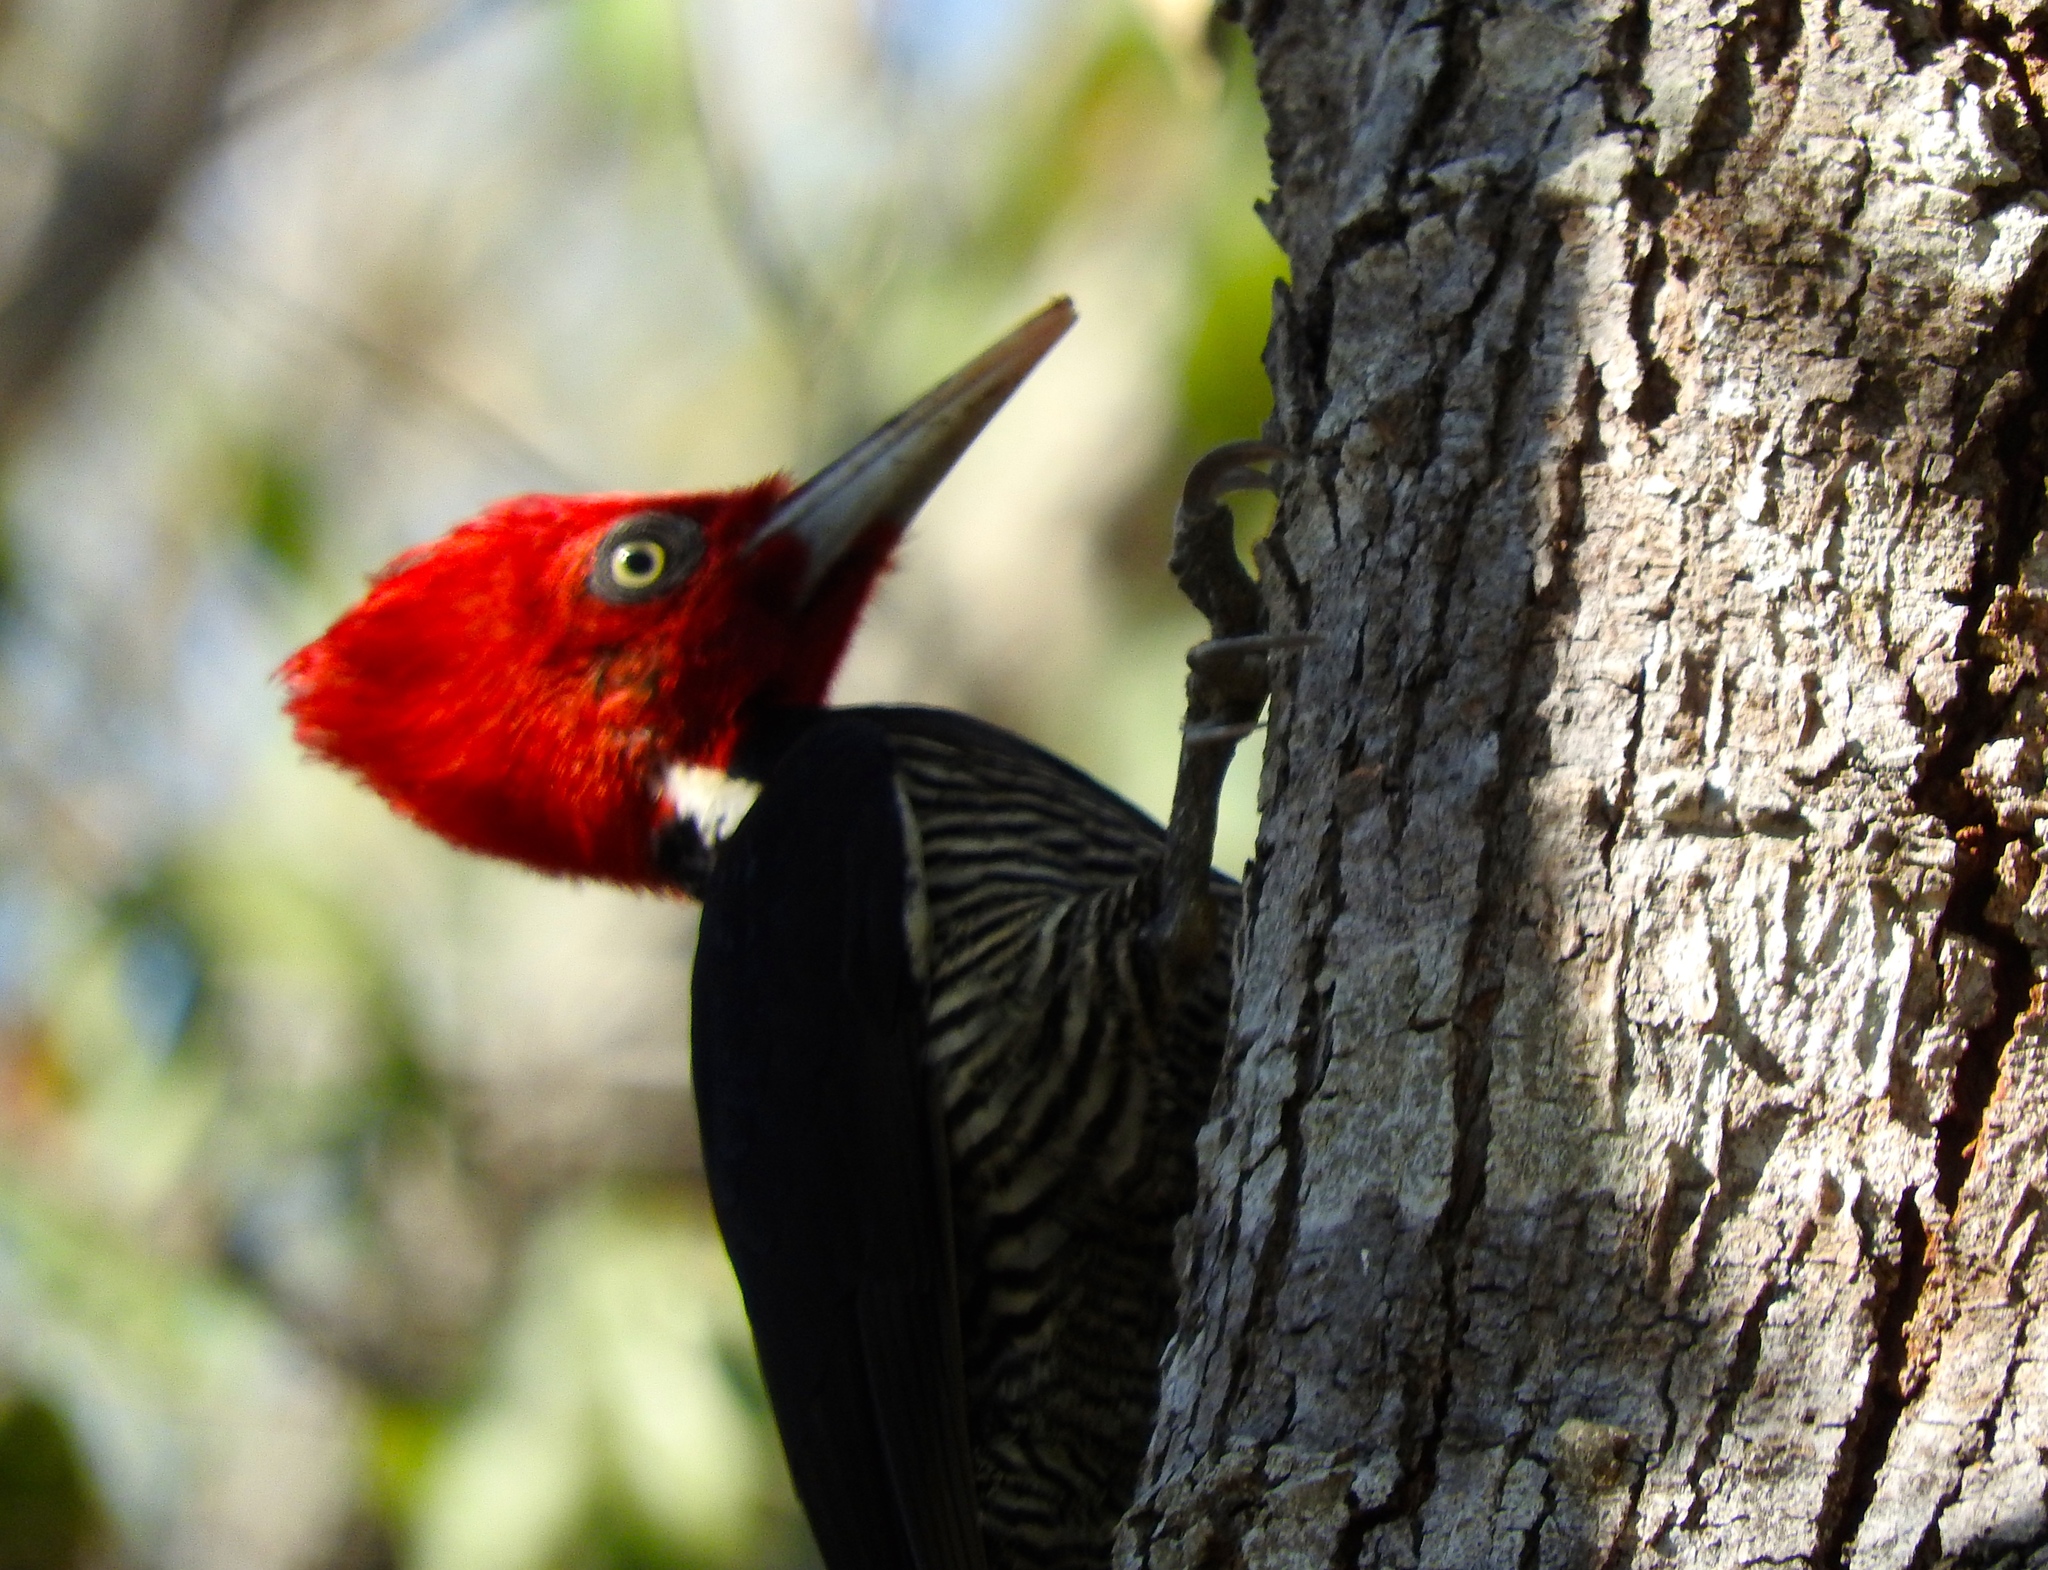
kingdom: Animalia
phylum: Chordata
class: Aves
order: Piciformes
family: Picidae
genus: Campephilus
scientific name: Campephilus guatemalensis
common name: Pale-billed woodpecker
